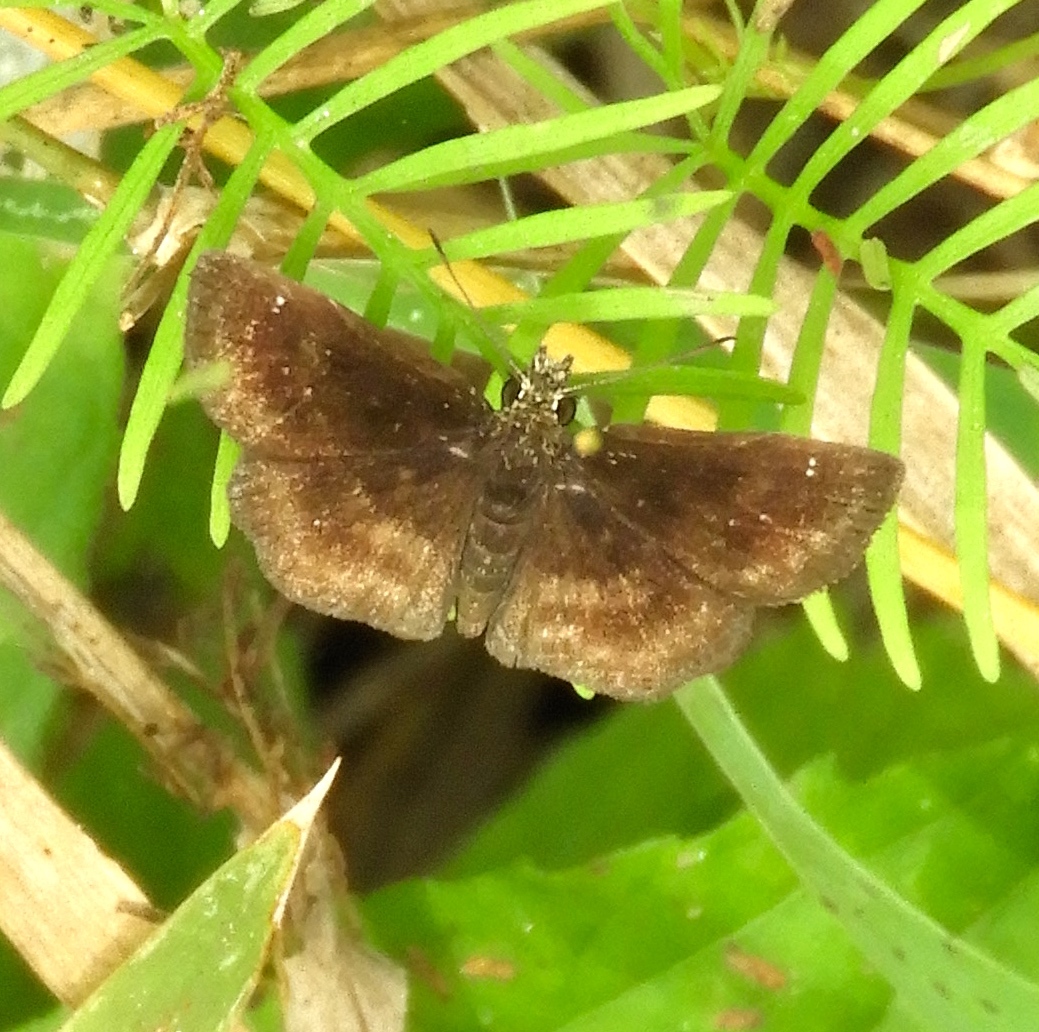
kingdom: Animalia
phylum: Arthropoda
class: Insecta
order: Lepidoptera
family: Hesperiidae
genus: Staphylus
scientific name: Staphylus mazans
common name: Mazans scallopwing
